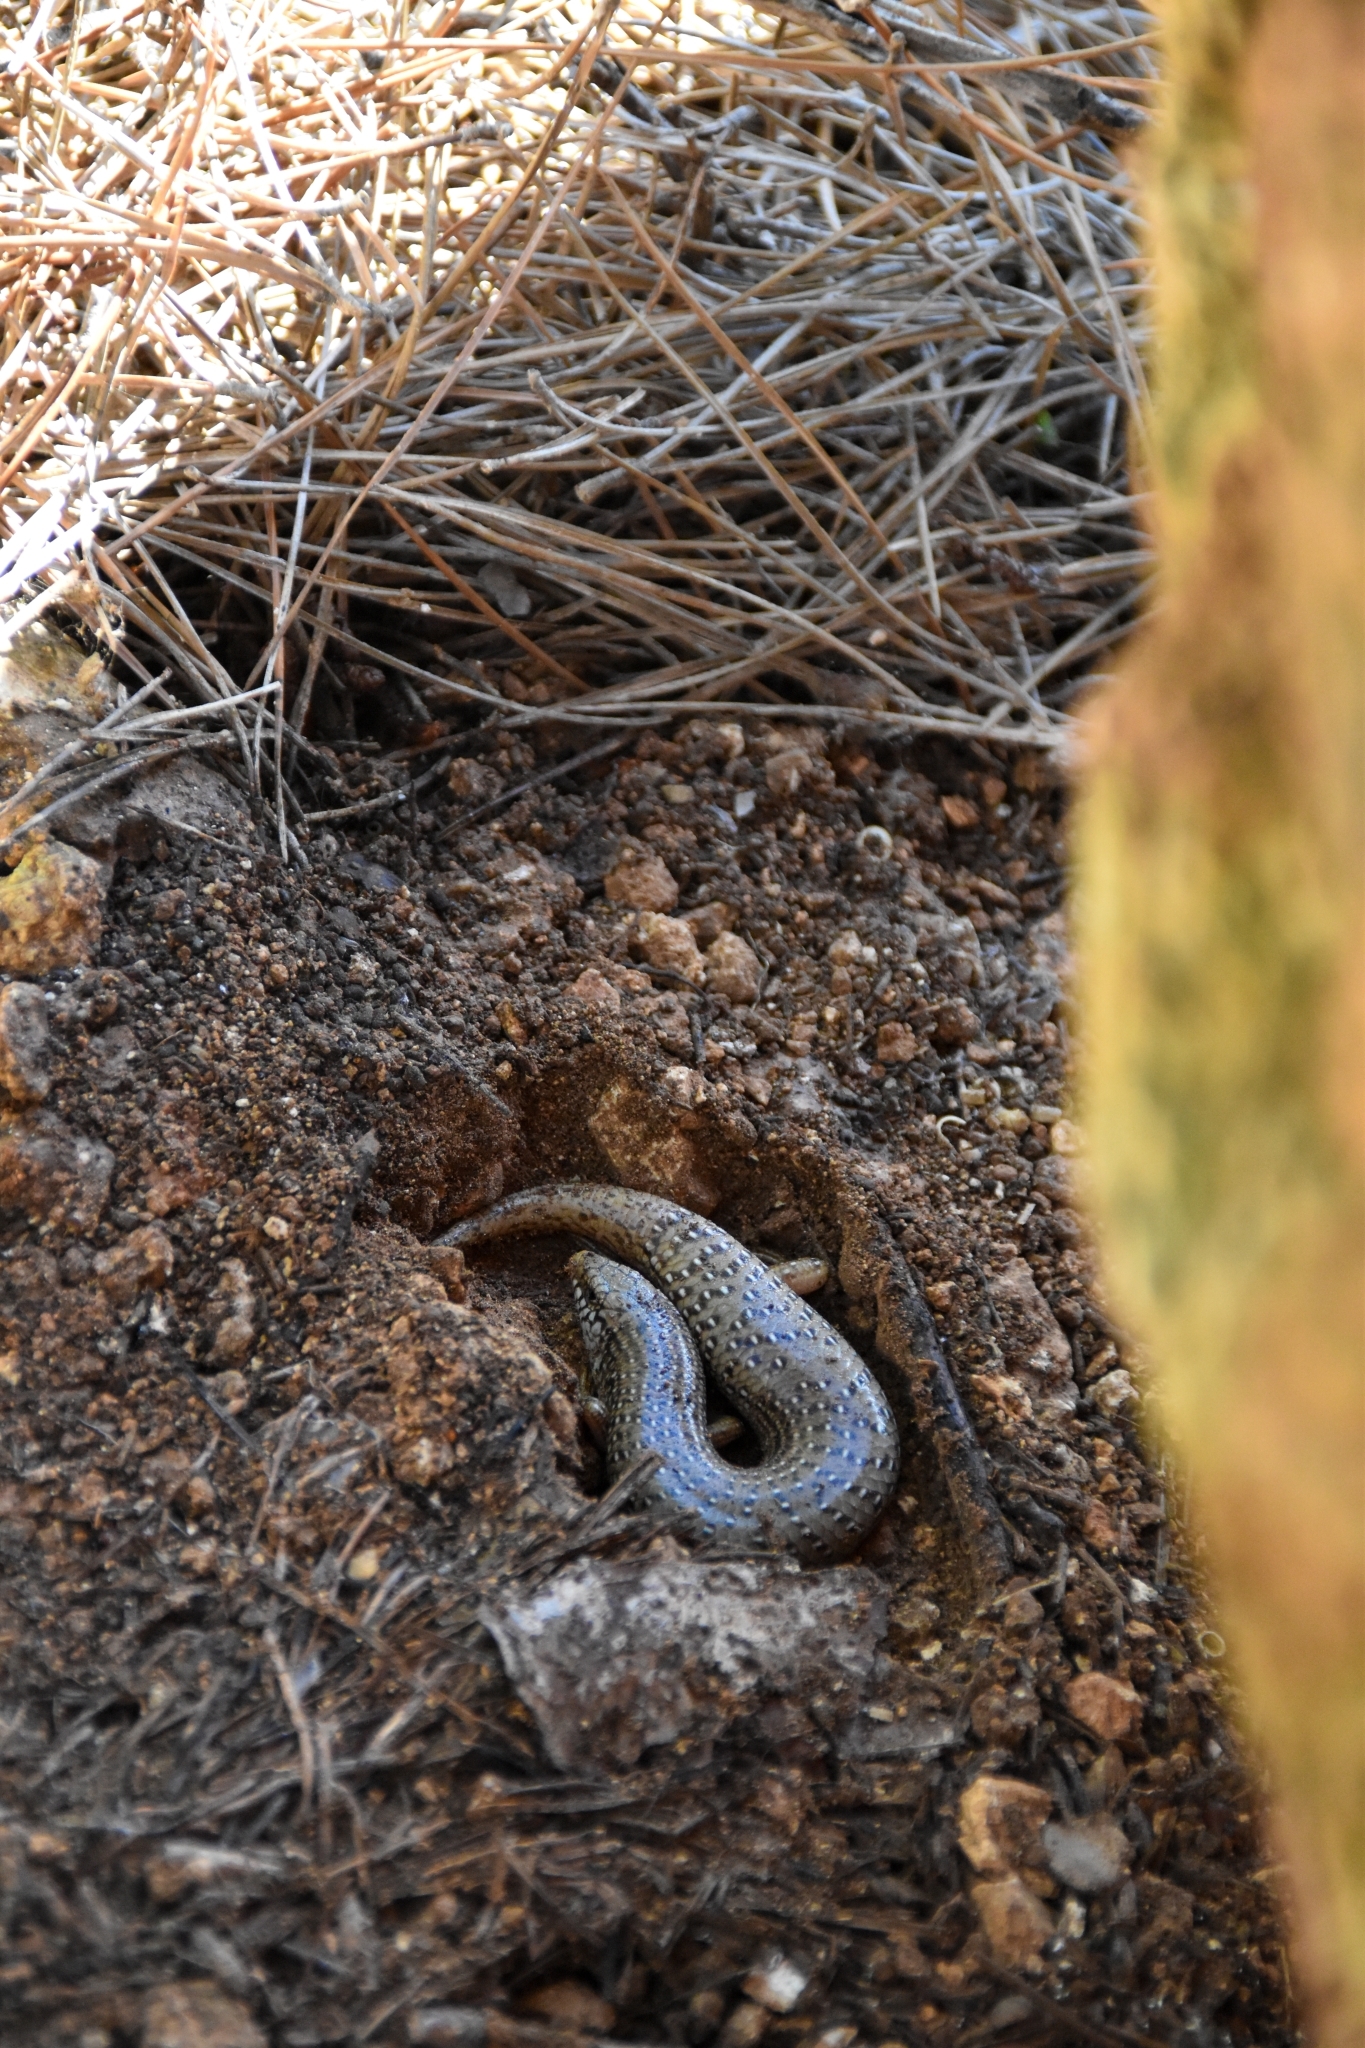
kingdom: Animalia
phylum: Chordata
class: Squamata
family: Scincidae
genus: Chalcides
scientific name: Chalcides ocellatus
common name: Ocellated skink
